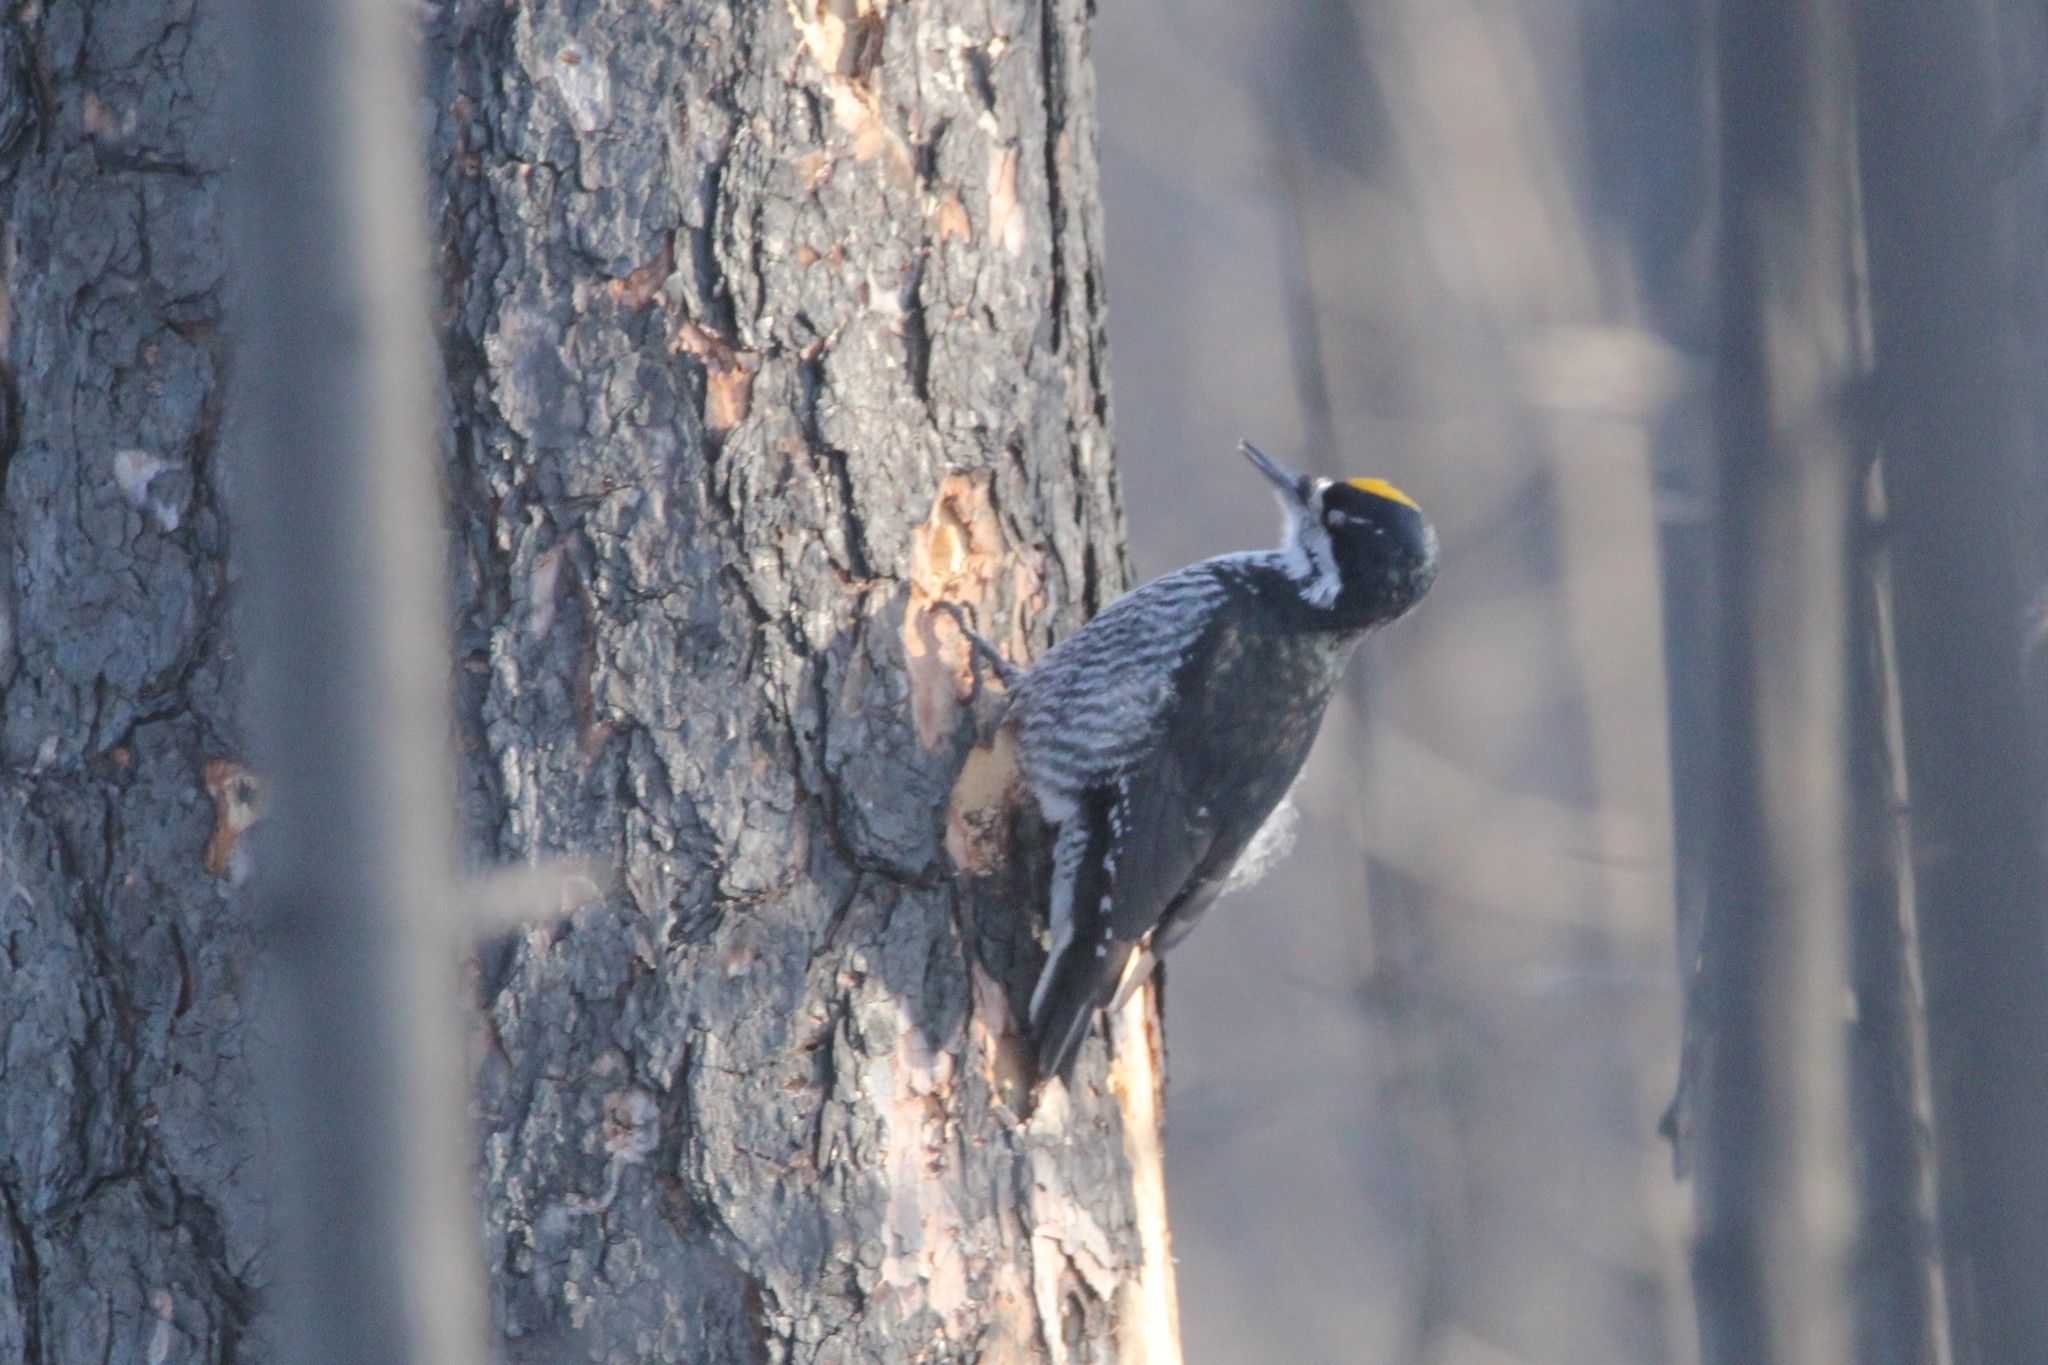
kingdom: Animalia
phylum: Chordata
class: Aves
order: Piciformes
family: Picidae
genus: Picoides
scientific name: Picoides arcticus
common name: Black-backed woodpecker
